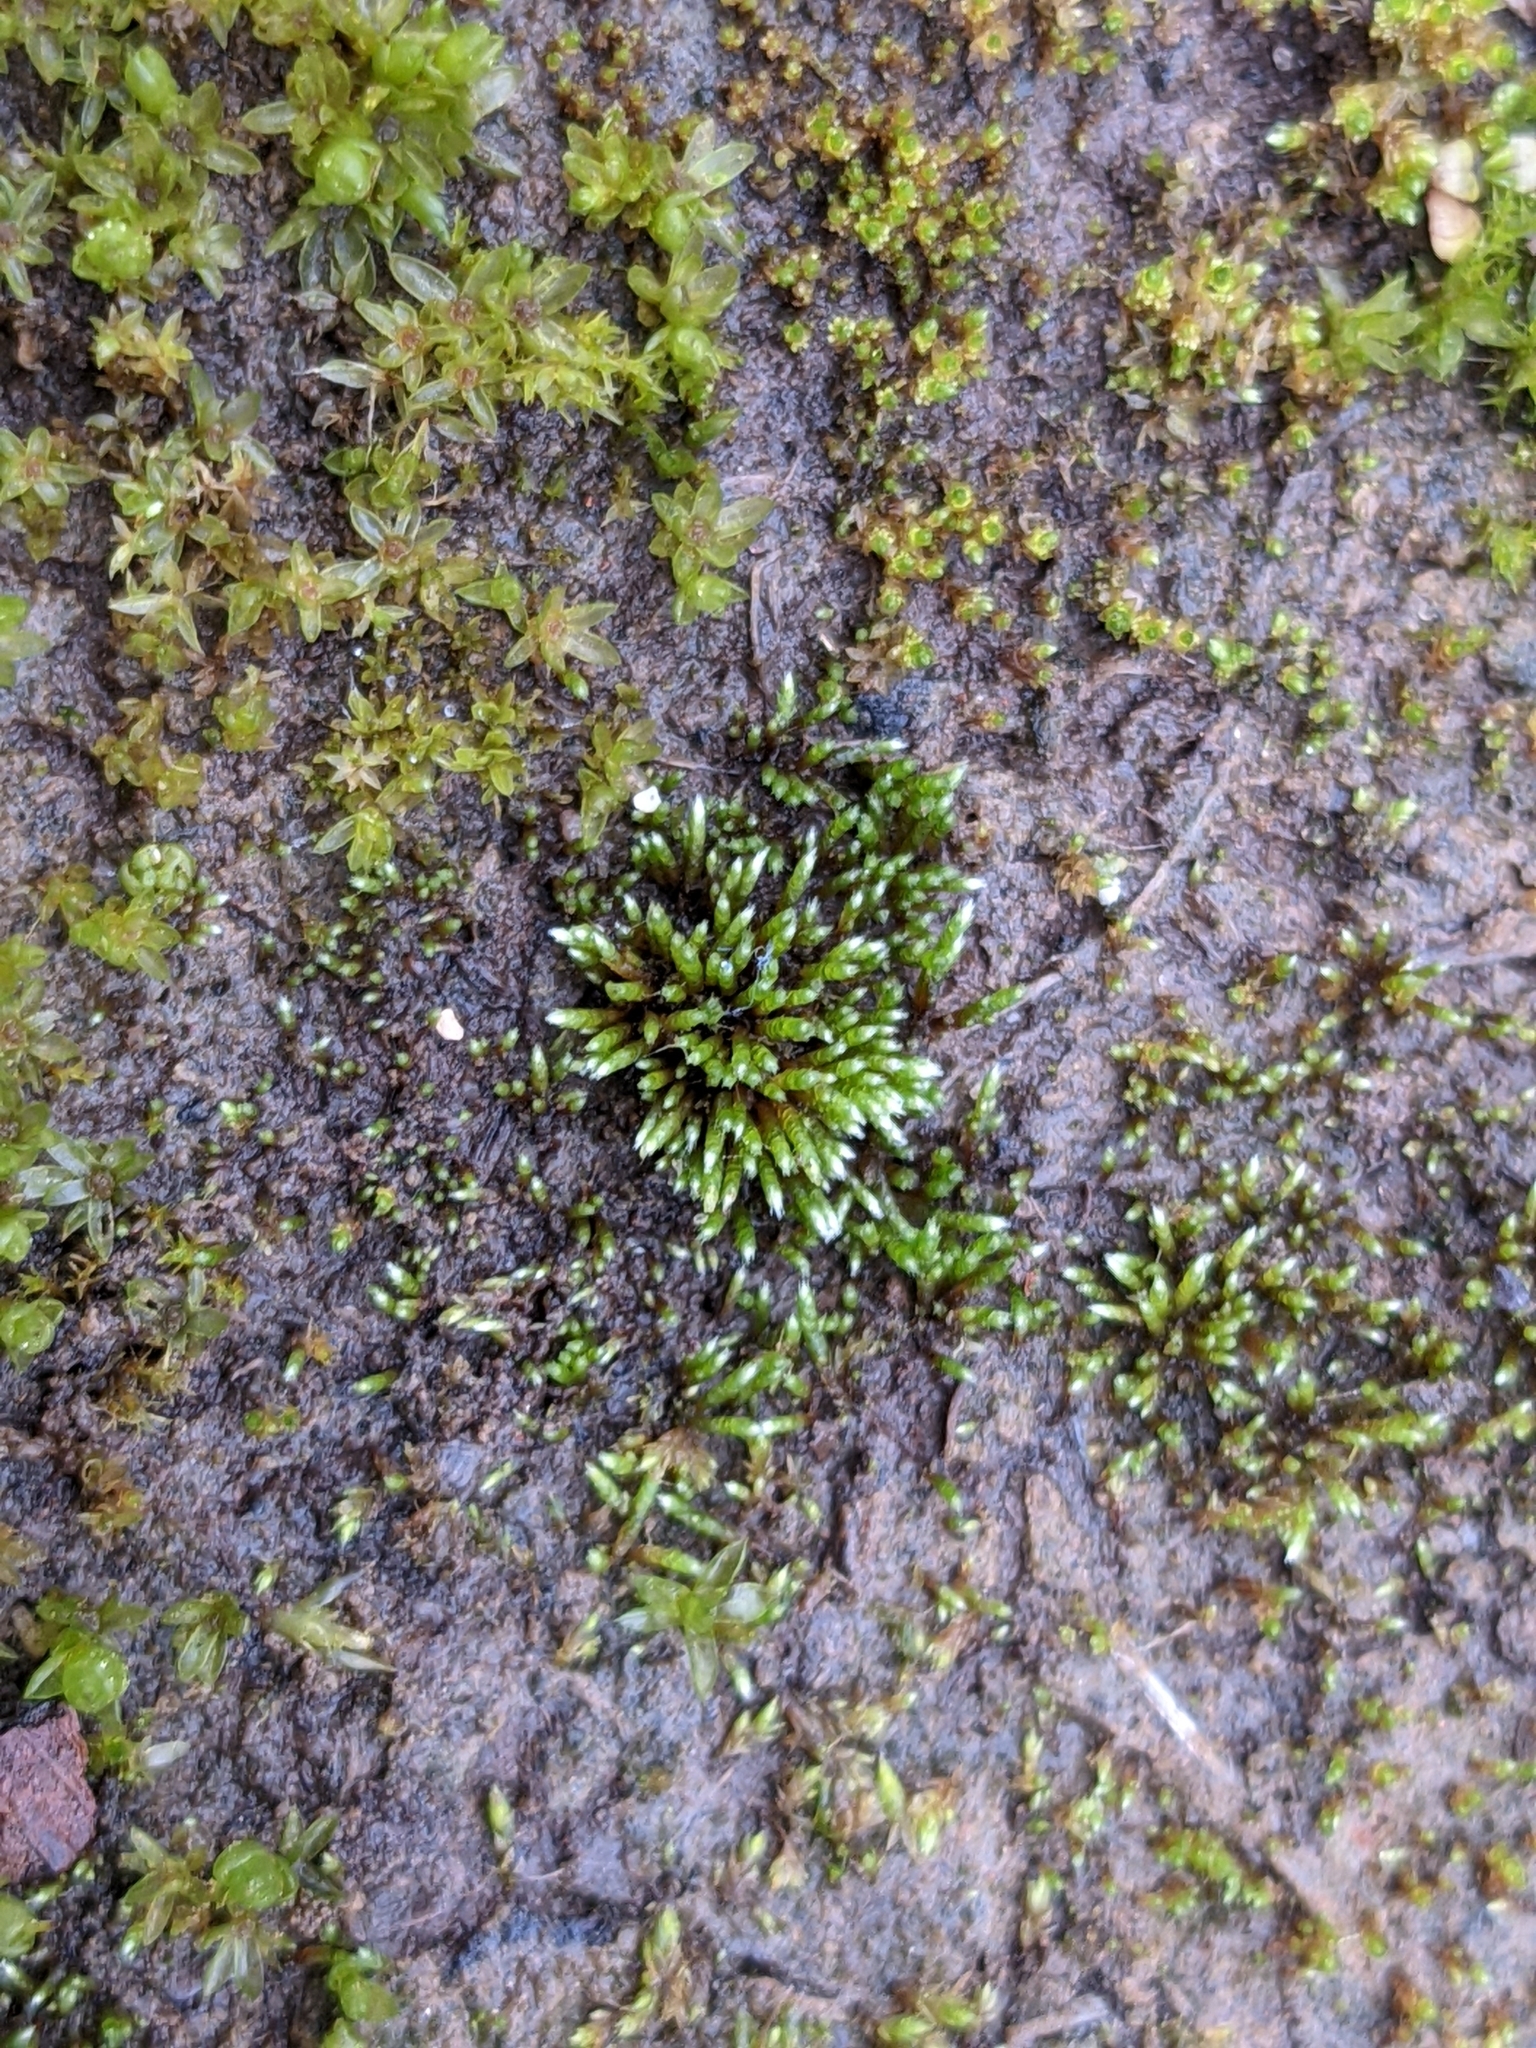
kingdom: Plantae
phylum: Bryophyta
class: Bryopsida
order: Bryales
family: Bryaceae
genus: Bryum
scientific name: Bryum argenteum
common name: Silver-moss
